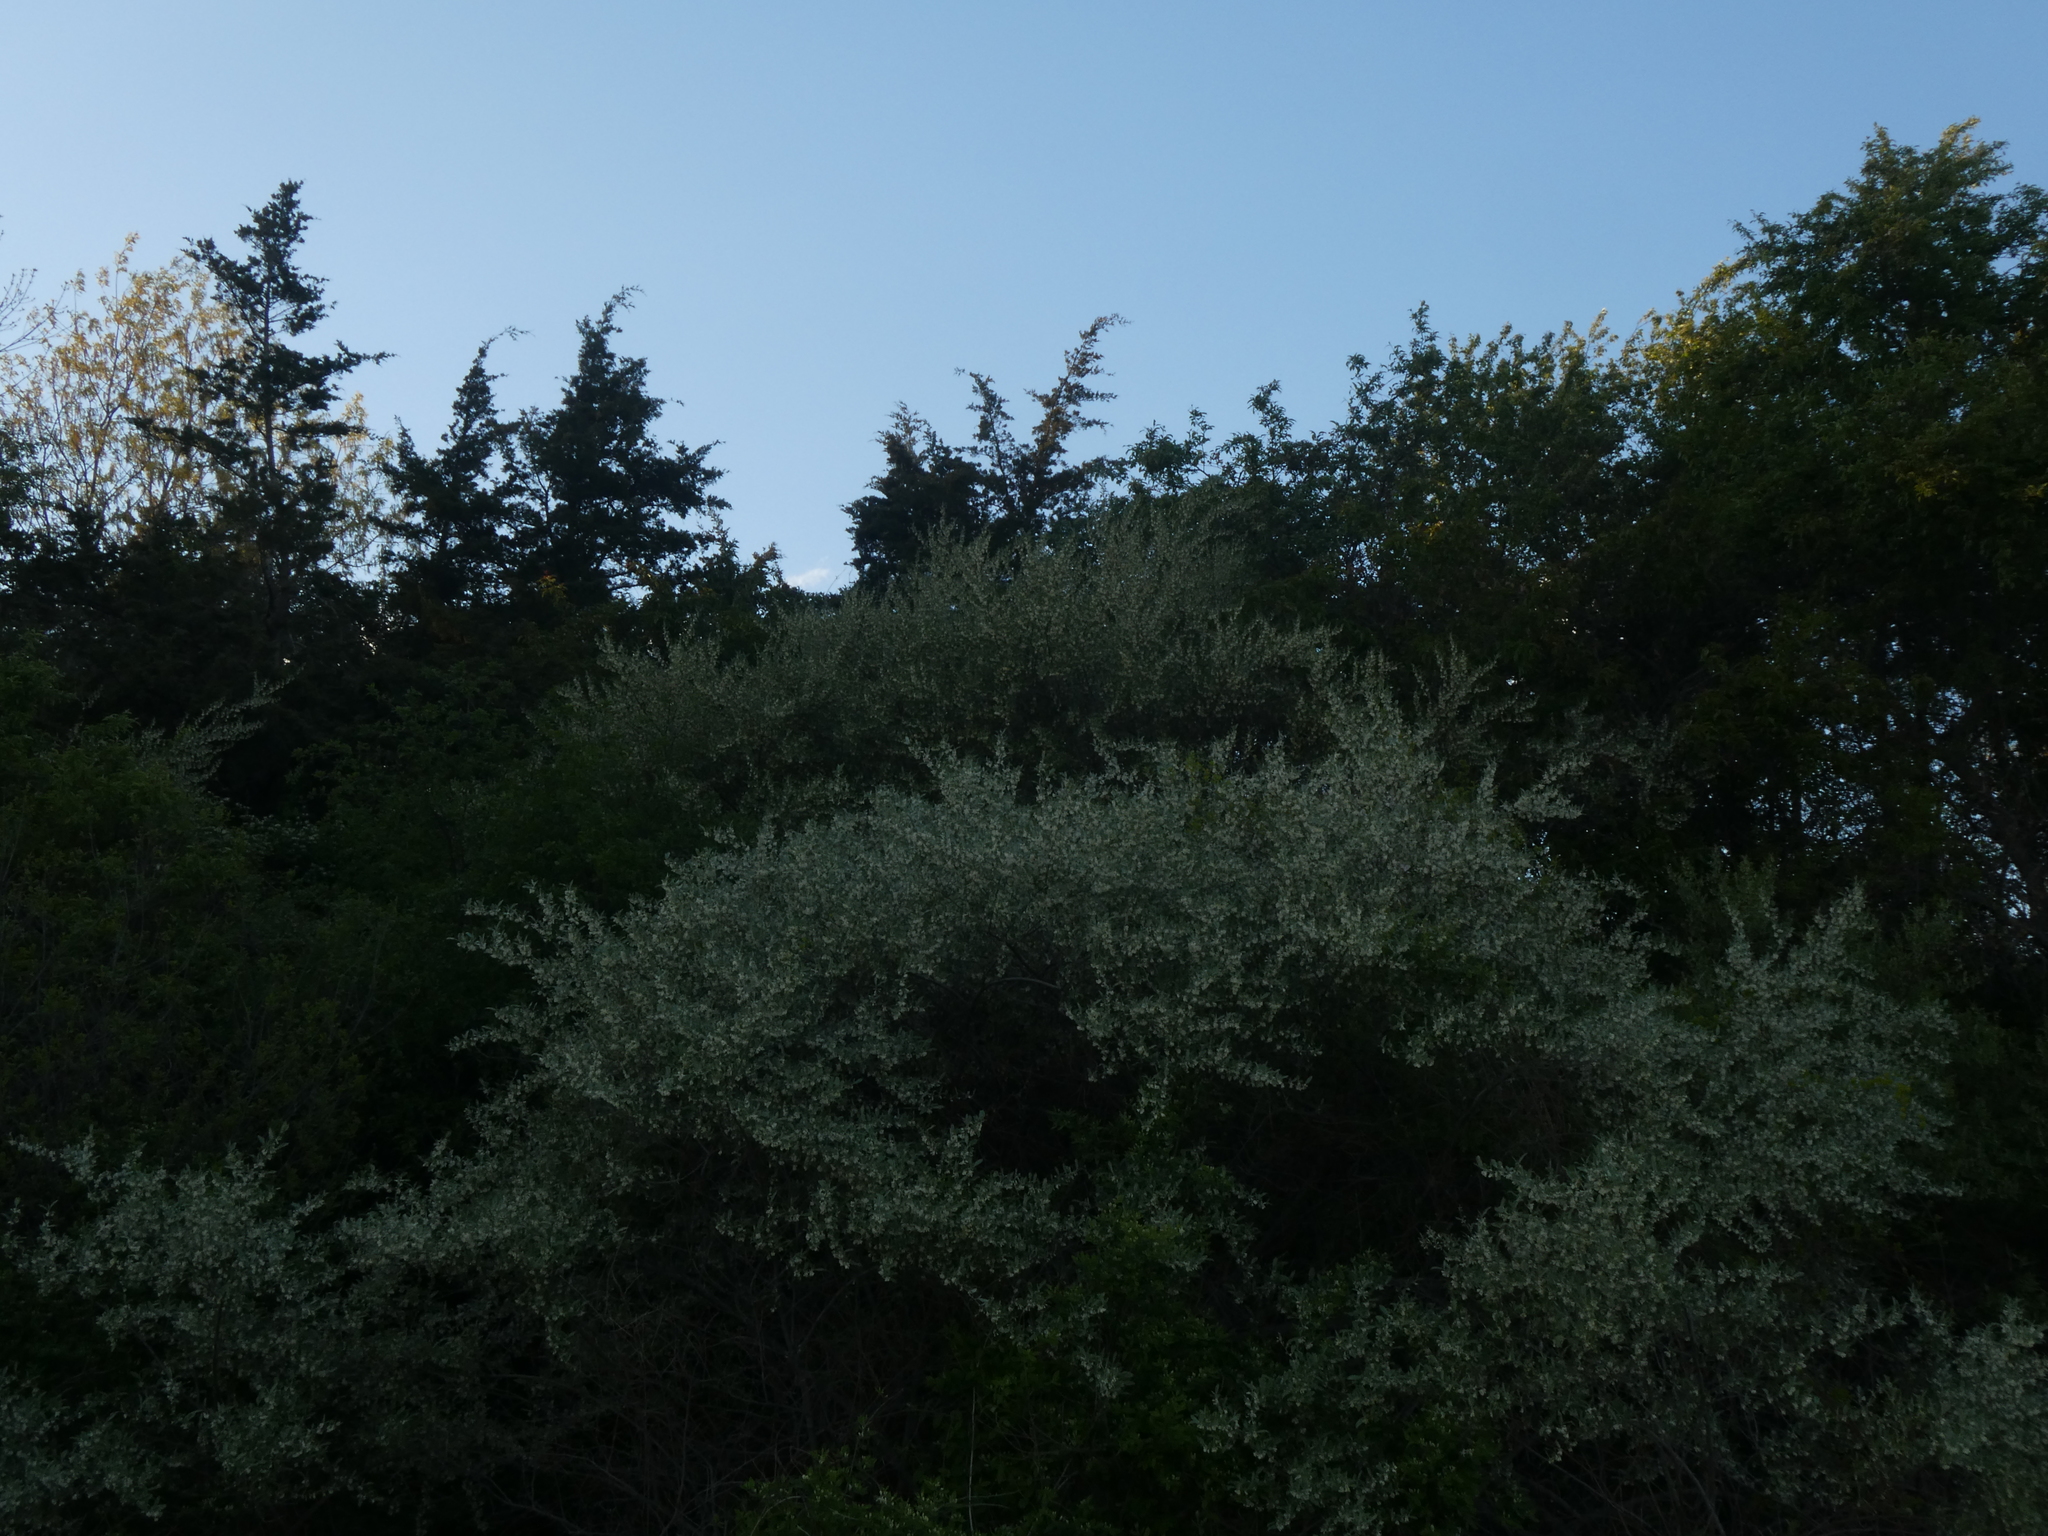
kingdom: Plantae
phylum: Tracheophyta
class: Magnoliopsida
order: Rosales
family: Elaeagnaceae
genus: Elaeagnus
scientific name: Elaeagnus umbellata
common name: Autumn olive
